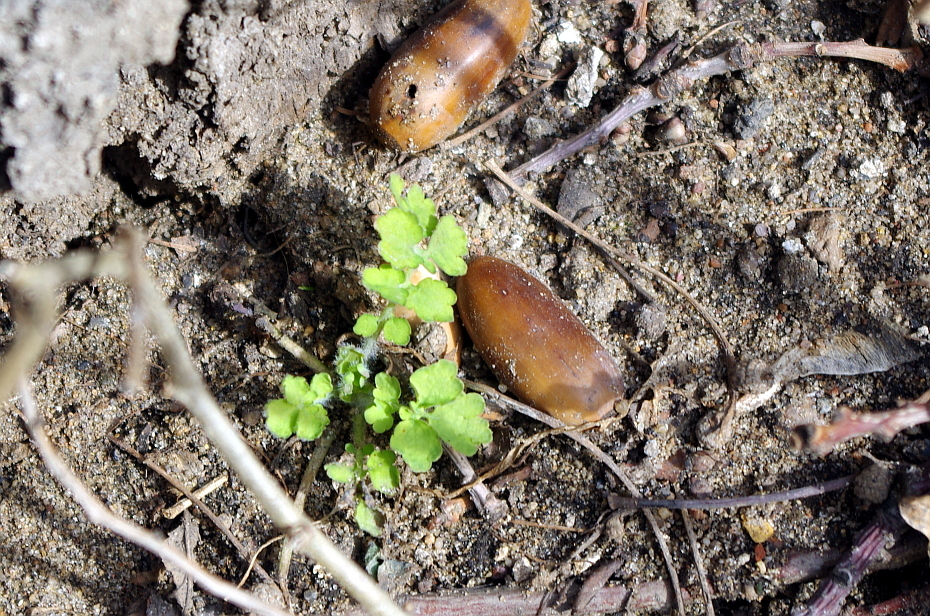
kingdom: Plantae
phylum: Tracheophyta
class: Magnoliopsida
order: Ranunculales
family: Papaveraceae
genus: Chelidonium
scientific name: Chelidonium majus
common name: Greater celandine
